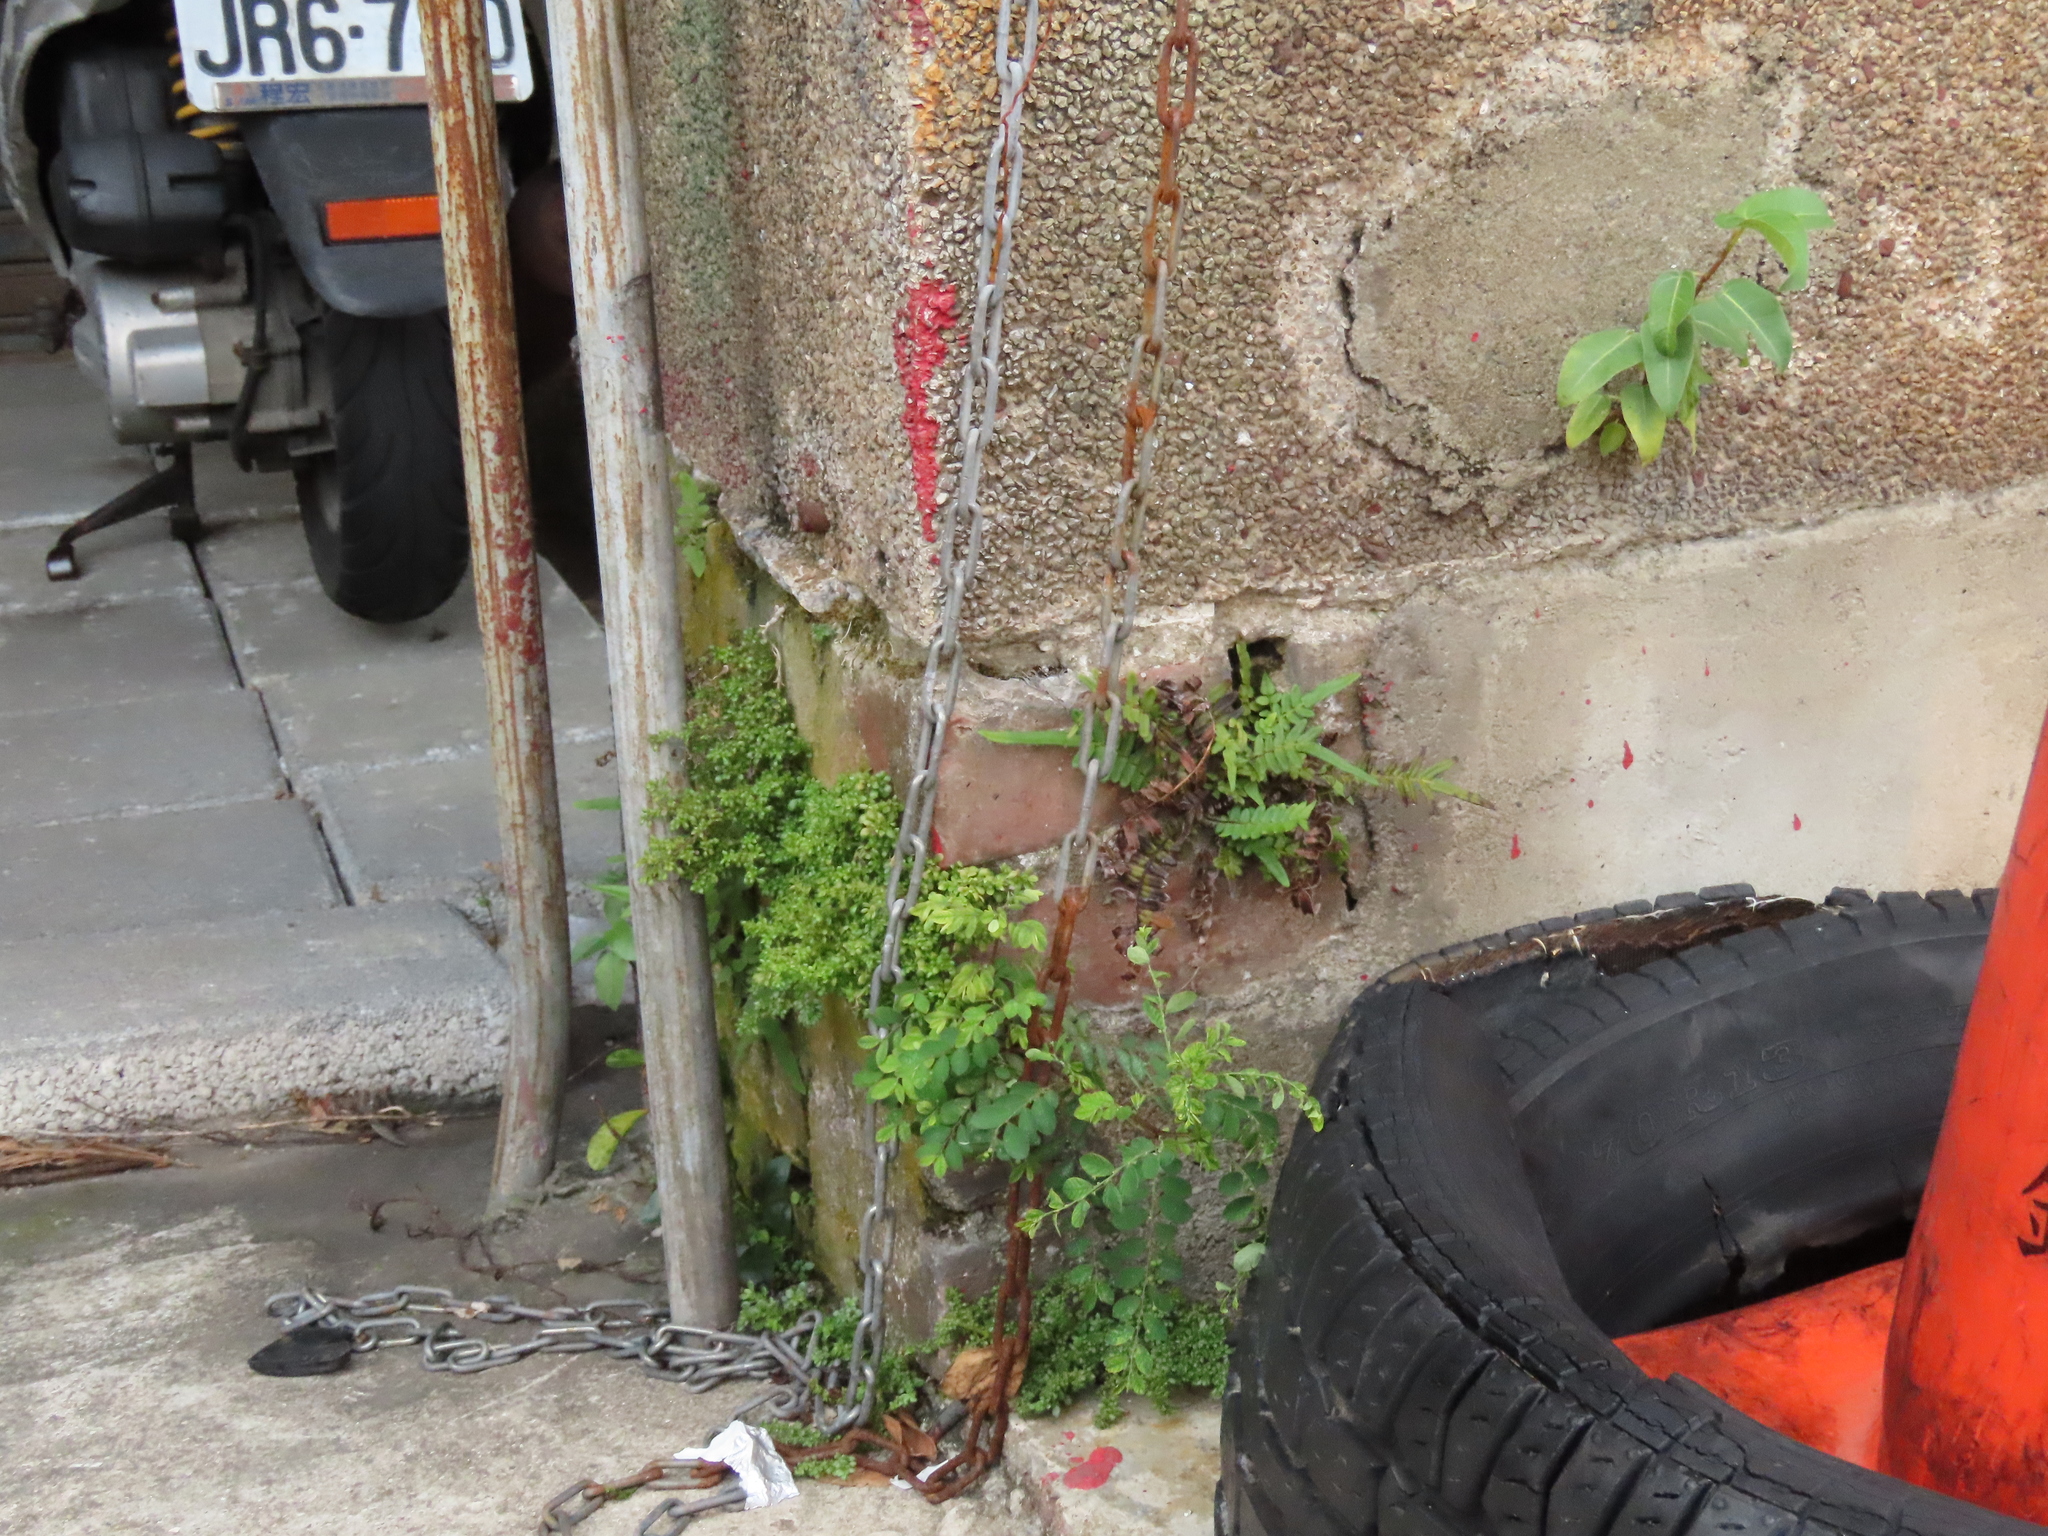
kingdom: Plantae
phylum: Tracheophyta
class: Polypodiopsida
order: Polypodiales
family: Pteridaceae
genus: Pteris
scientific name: Pteris vittata
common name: Ladder brake
